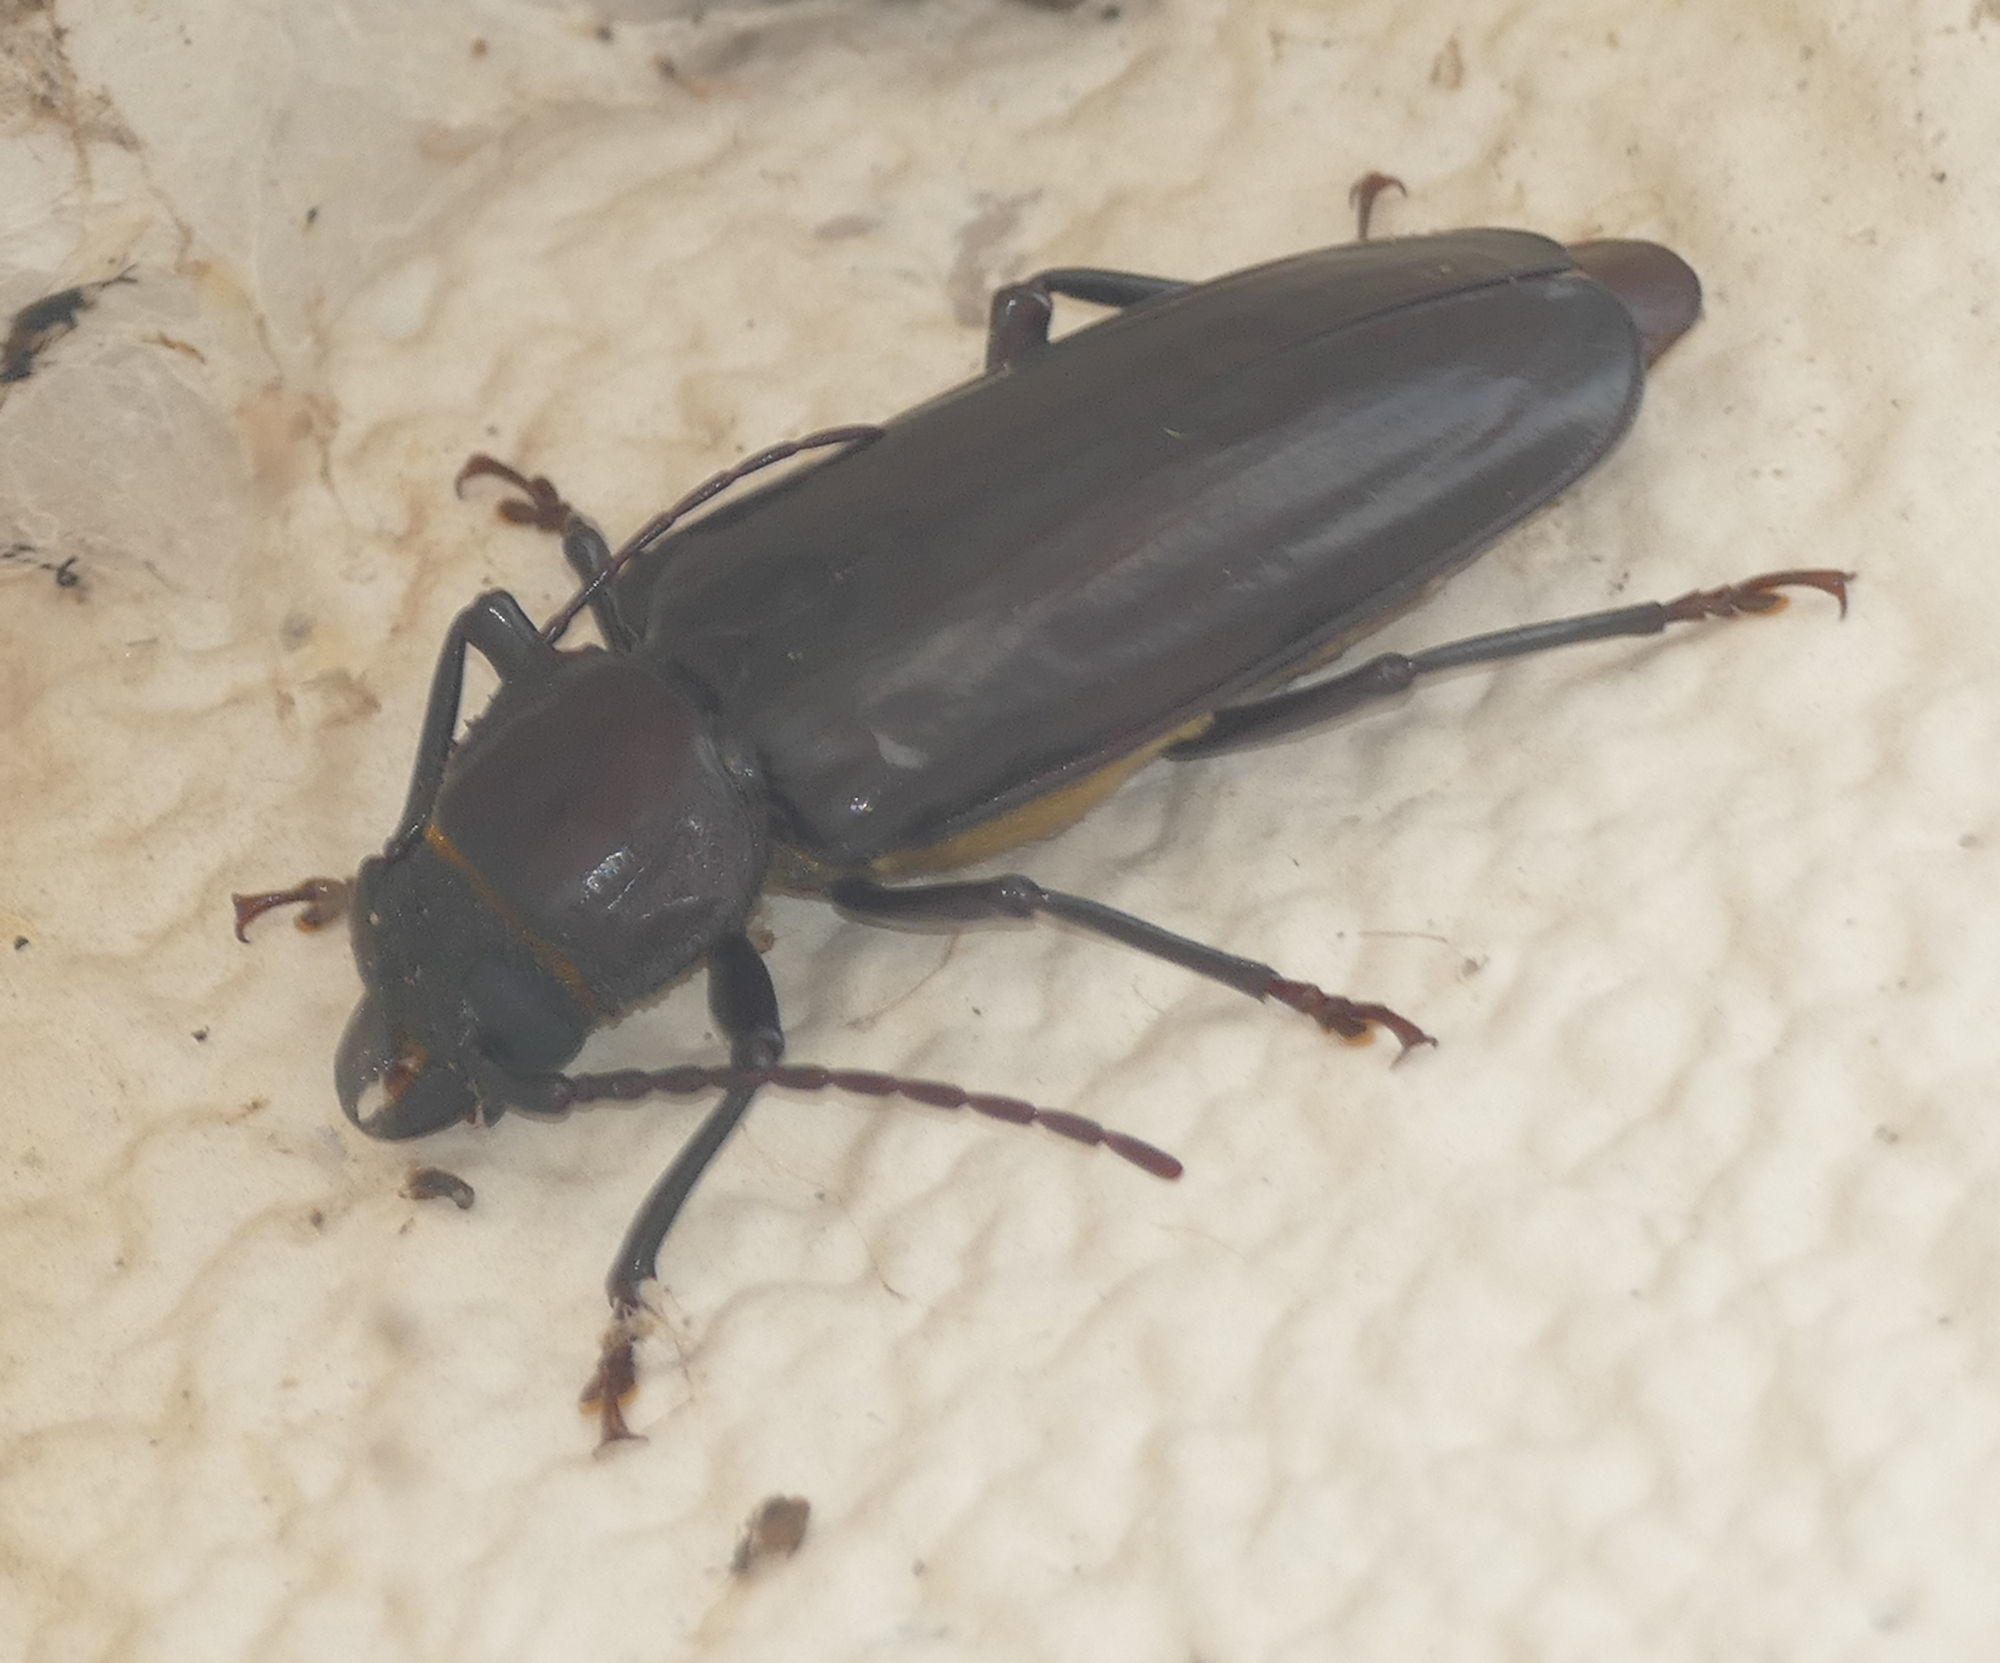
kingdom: Animalia
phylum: Arthropoda
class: Insecta
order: Coleoptera
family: Cerambycidae
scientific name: Cerambycidae
